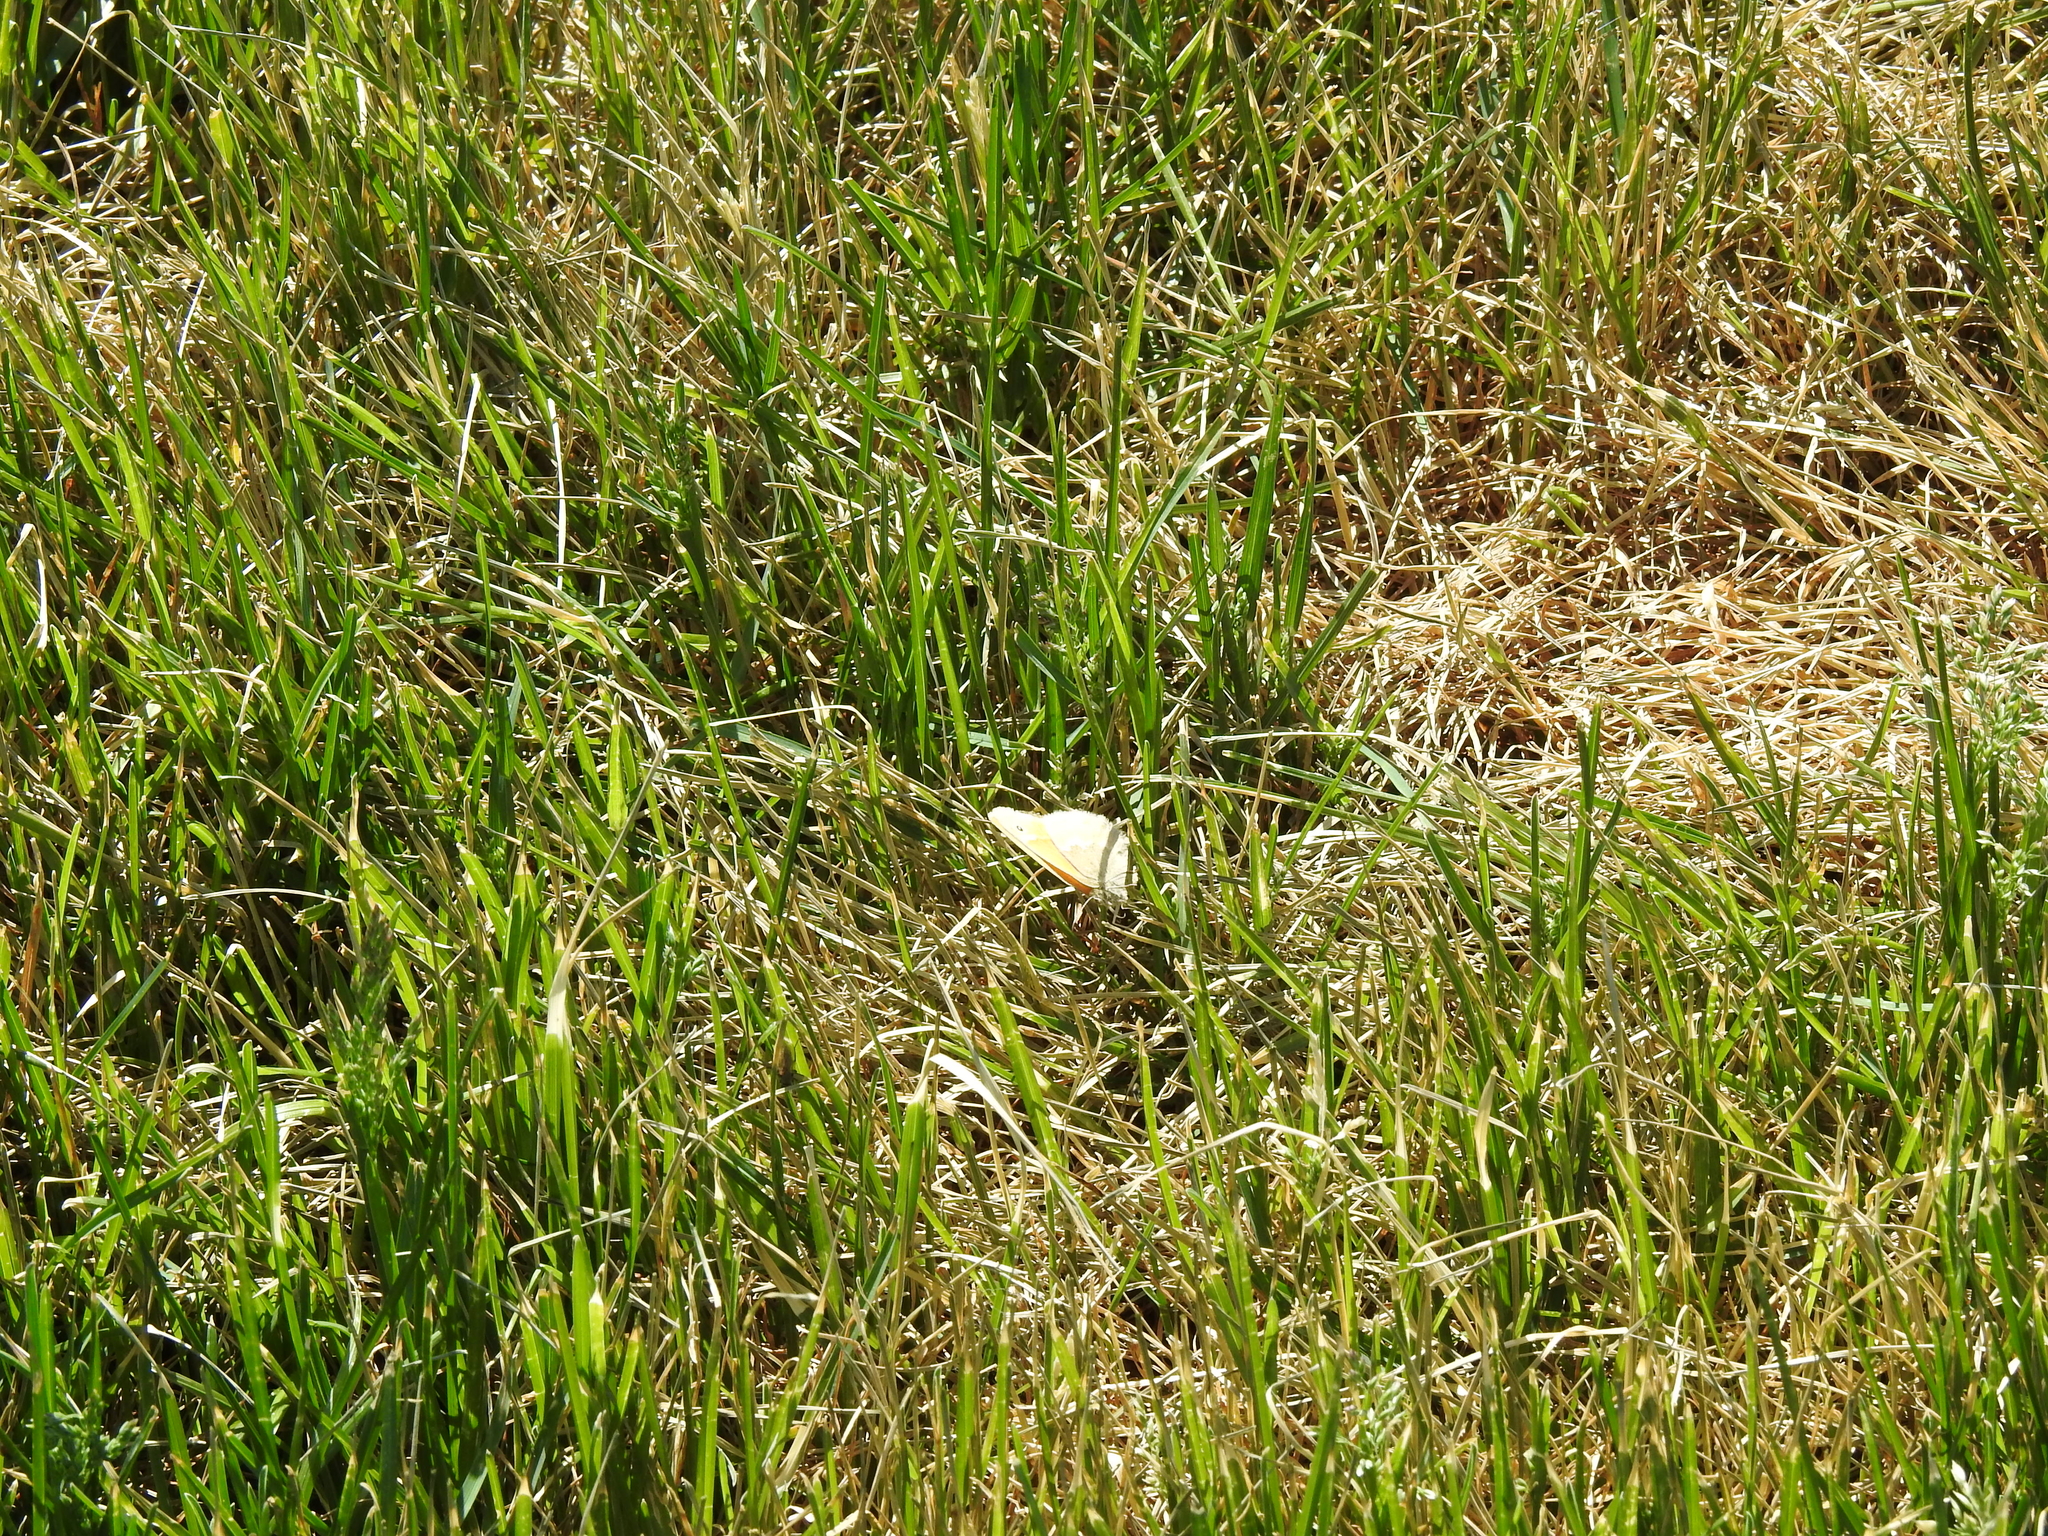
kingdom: Animalia
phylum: Arthropoda
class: Insecta
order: Lepidoptera
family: Nymphalidae
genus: Coenonympha
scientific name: Coenonympha california
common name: Common ringlet
